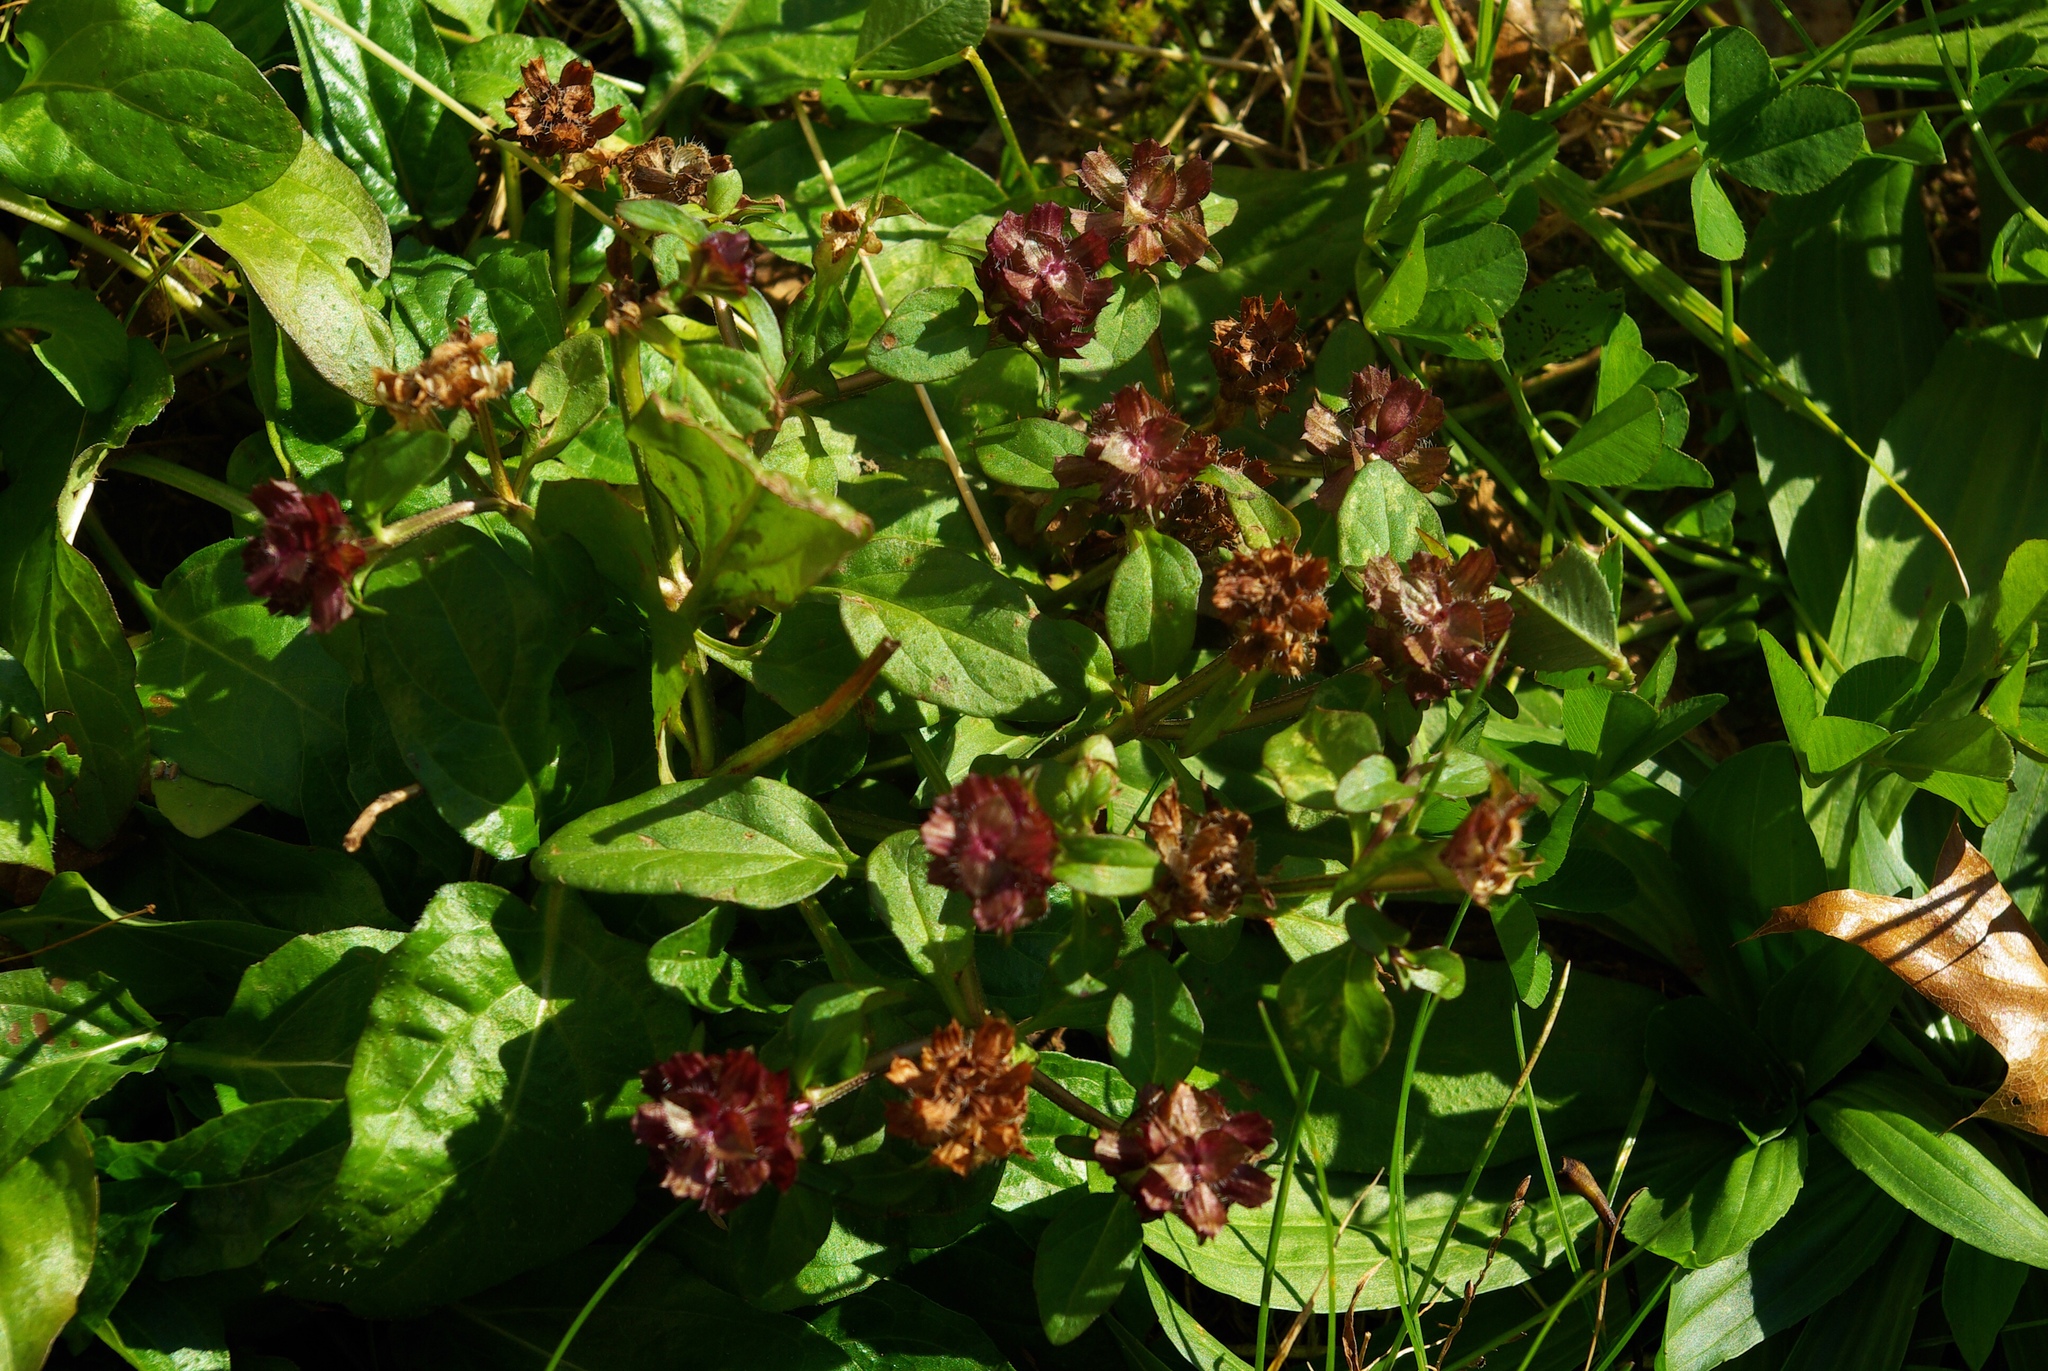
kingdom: Plantae
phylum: Tracheophyta
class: Magnoliopsida
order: Lamiales
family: Lamiaceae
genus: Prunella
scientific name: Prunella vulgaris
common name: Heal-all
